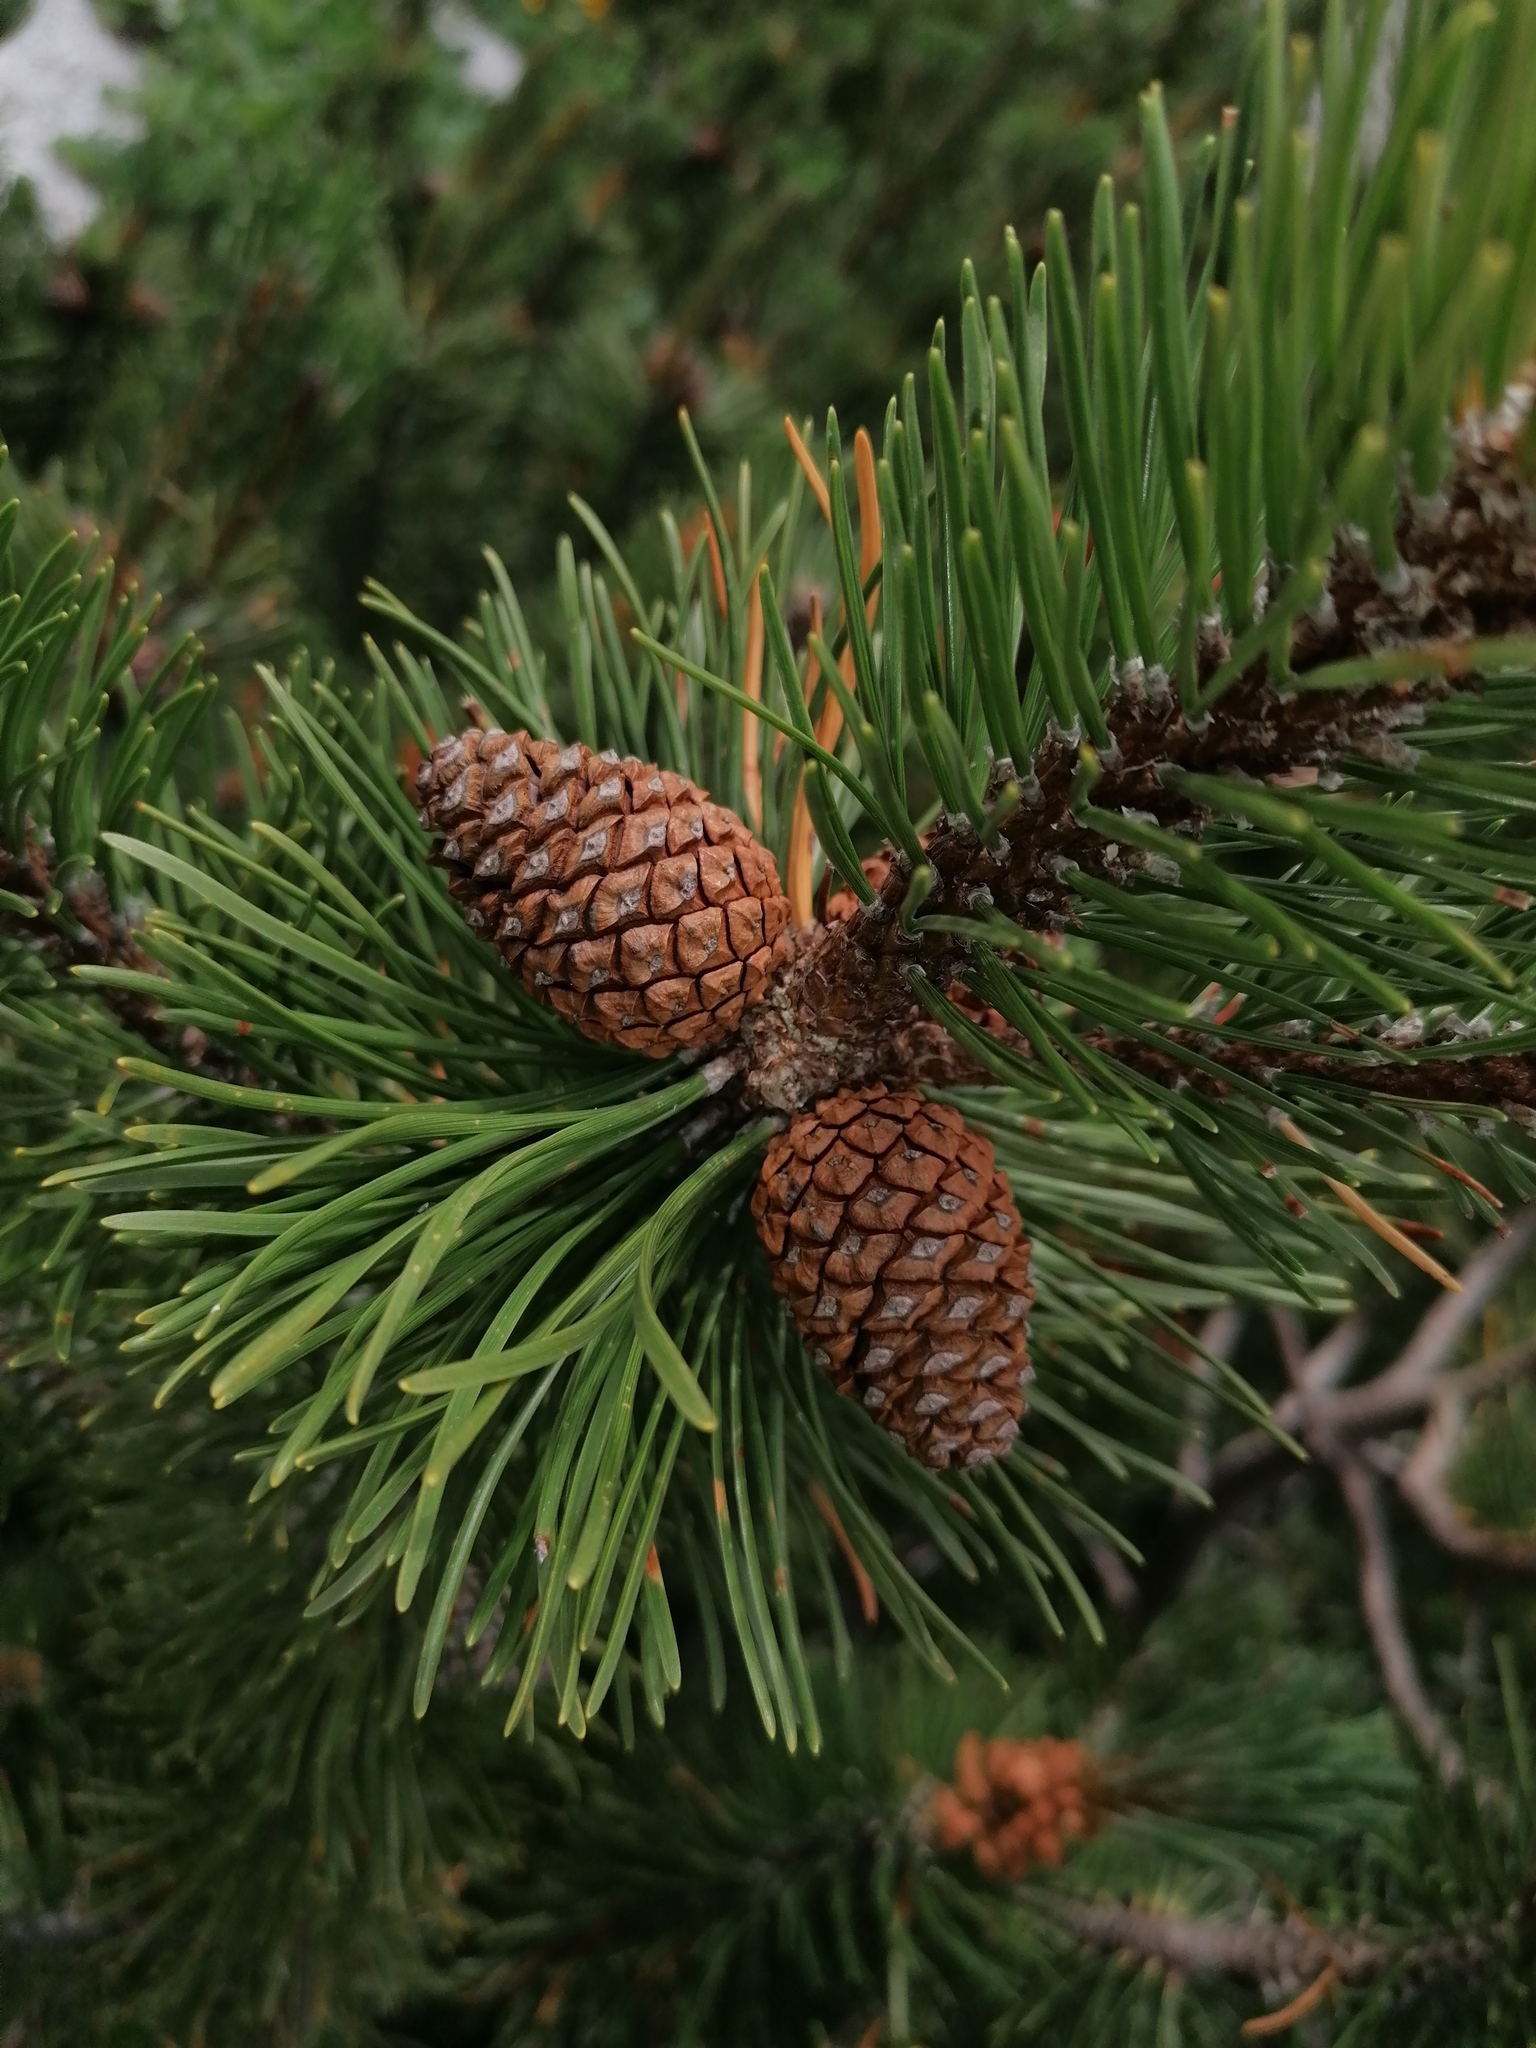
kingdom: Plantae
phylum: Tracheophyta
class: Pinopsida
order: Pinales
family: Pinaceae
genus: Pinus
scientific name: Pinus mugo
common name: Mugo pine
